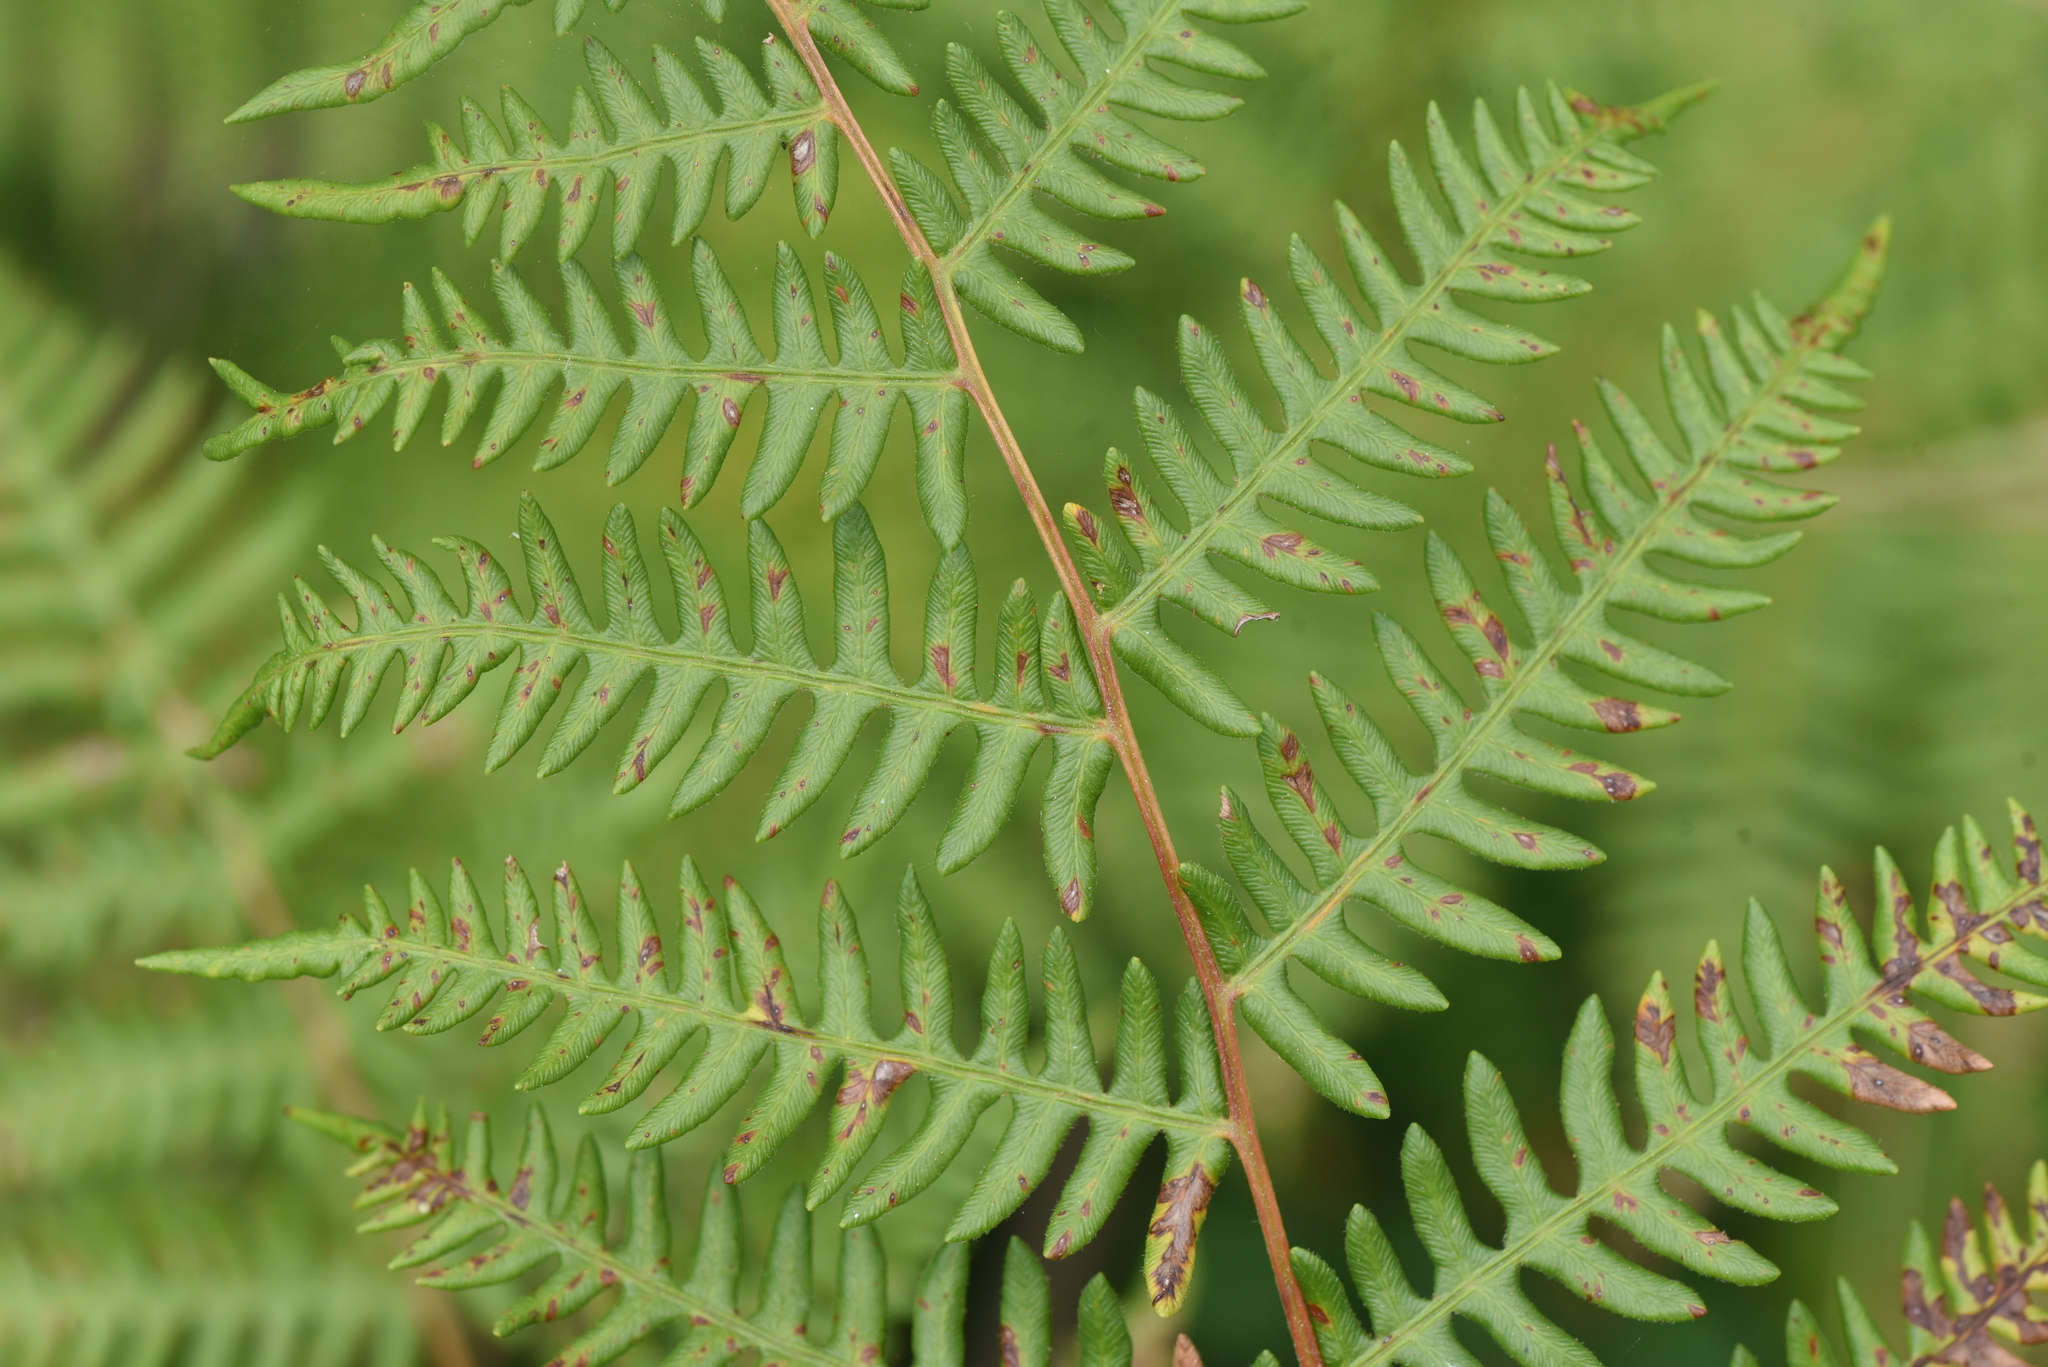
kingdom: Plantae
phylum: Tracheophyta
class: Polypodiopsida
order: Polypodiales
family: Dennstaedtiaceae
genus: Pteridium
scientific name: Pteridium aquilinum
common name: Bracken
